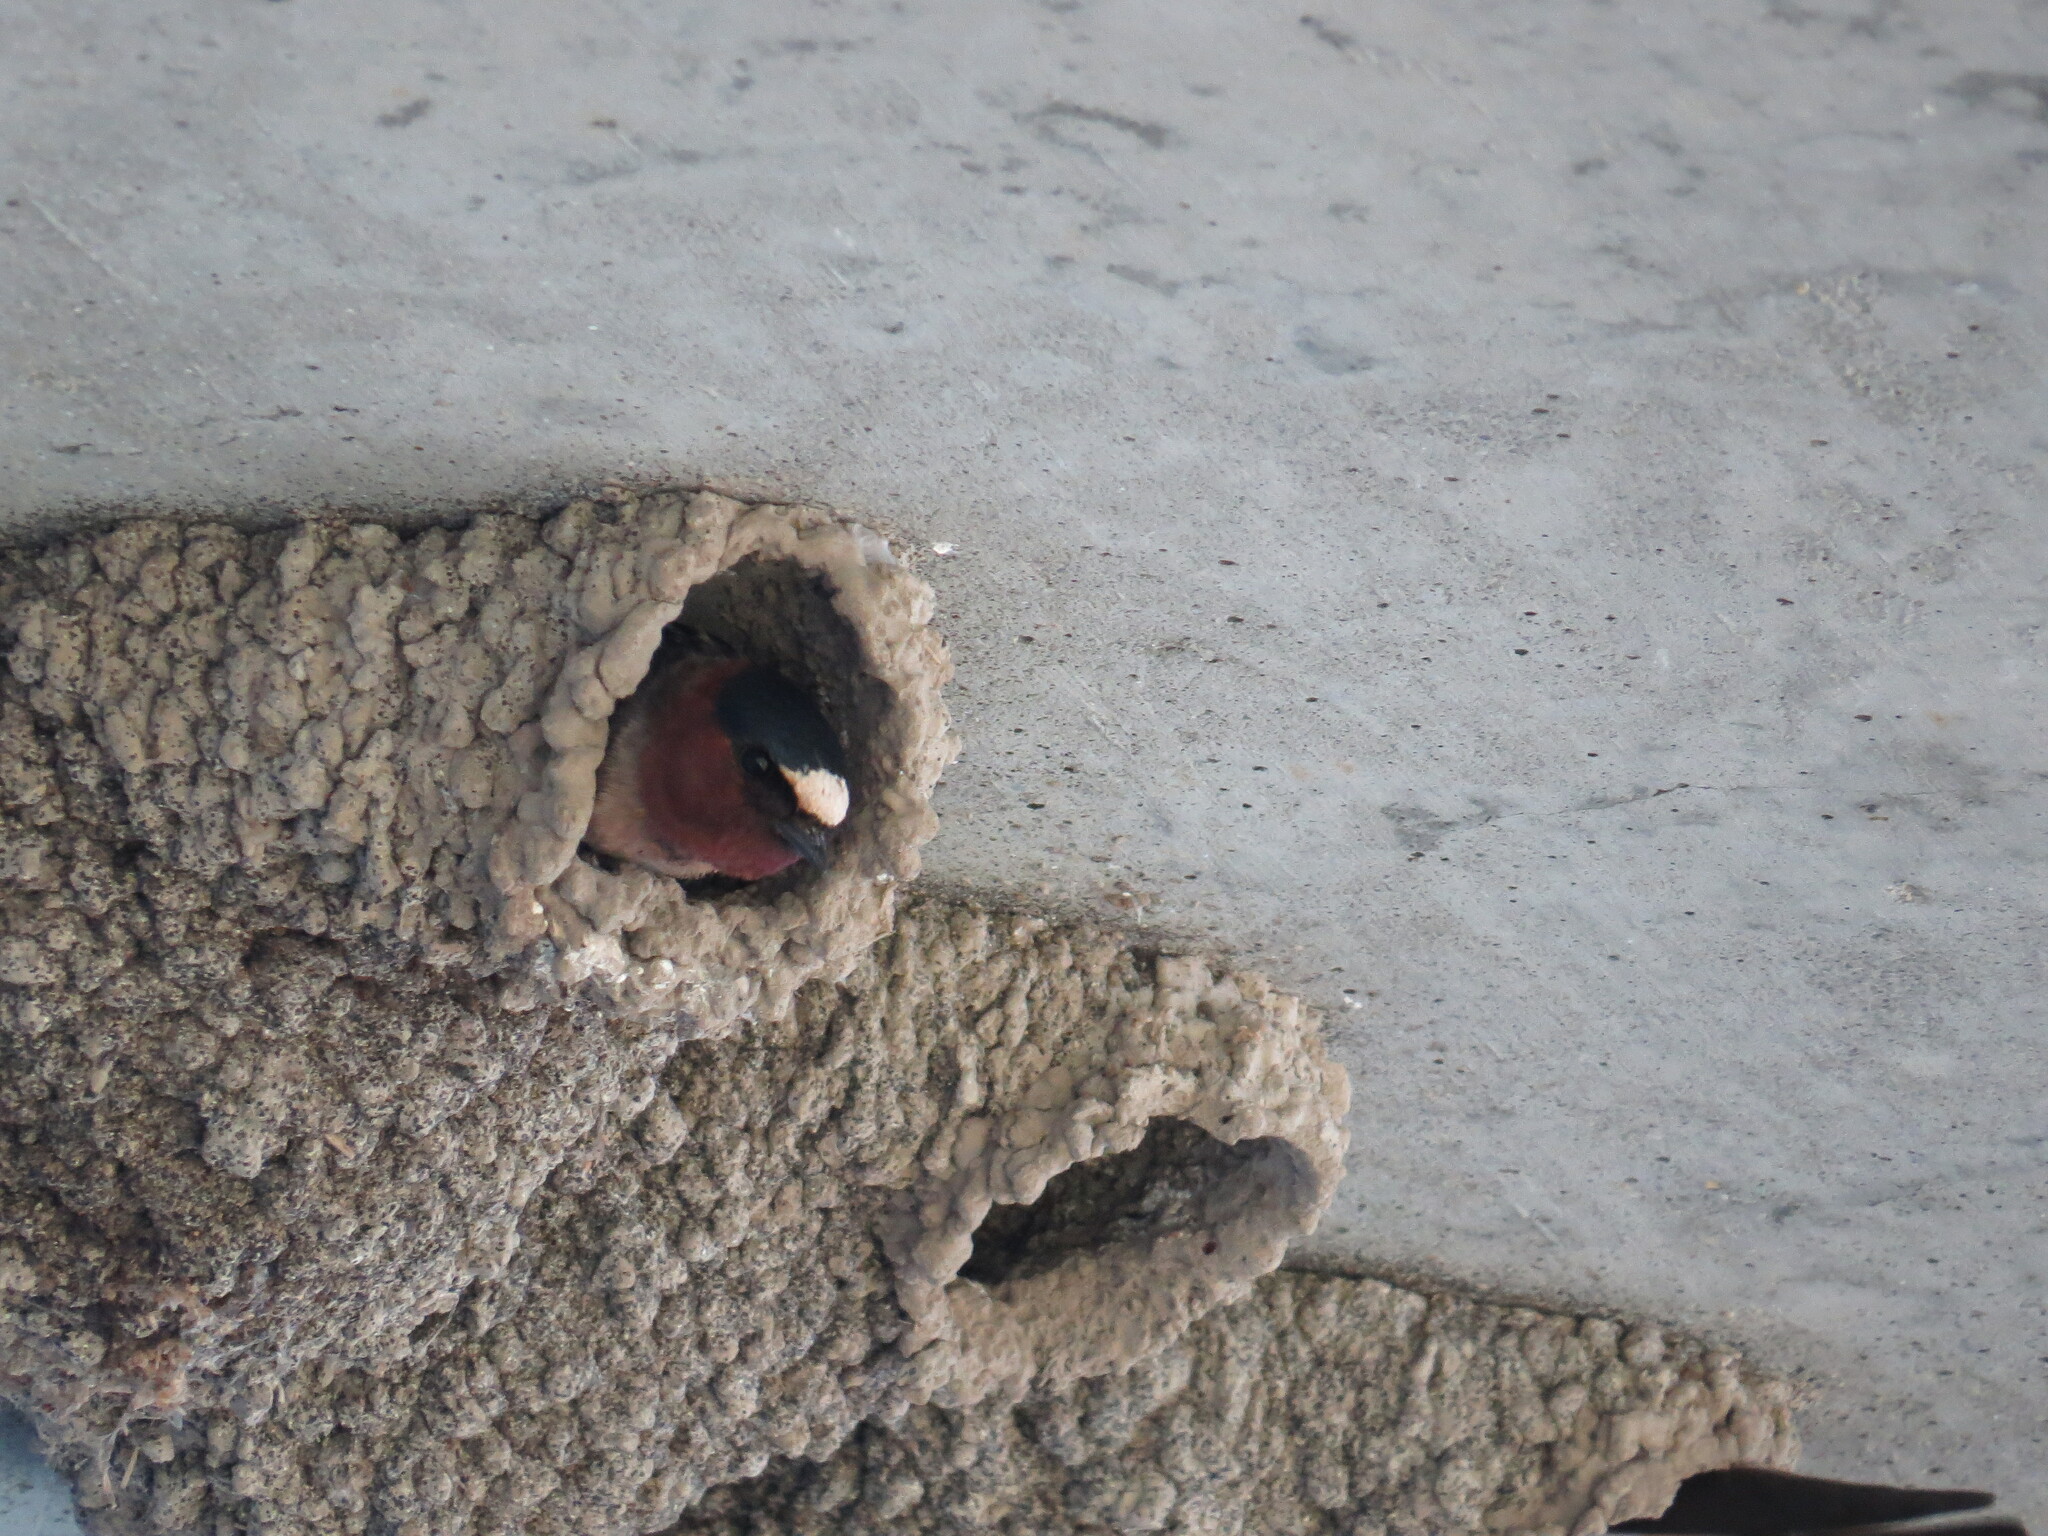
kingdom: Animalia
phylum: Chordata
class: Aves
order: Passeriformes
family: Hirundinidae
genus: Petrochelidon
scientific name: Petrochelidon pyrrhonota
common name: American cliff swallow
